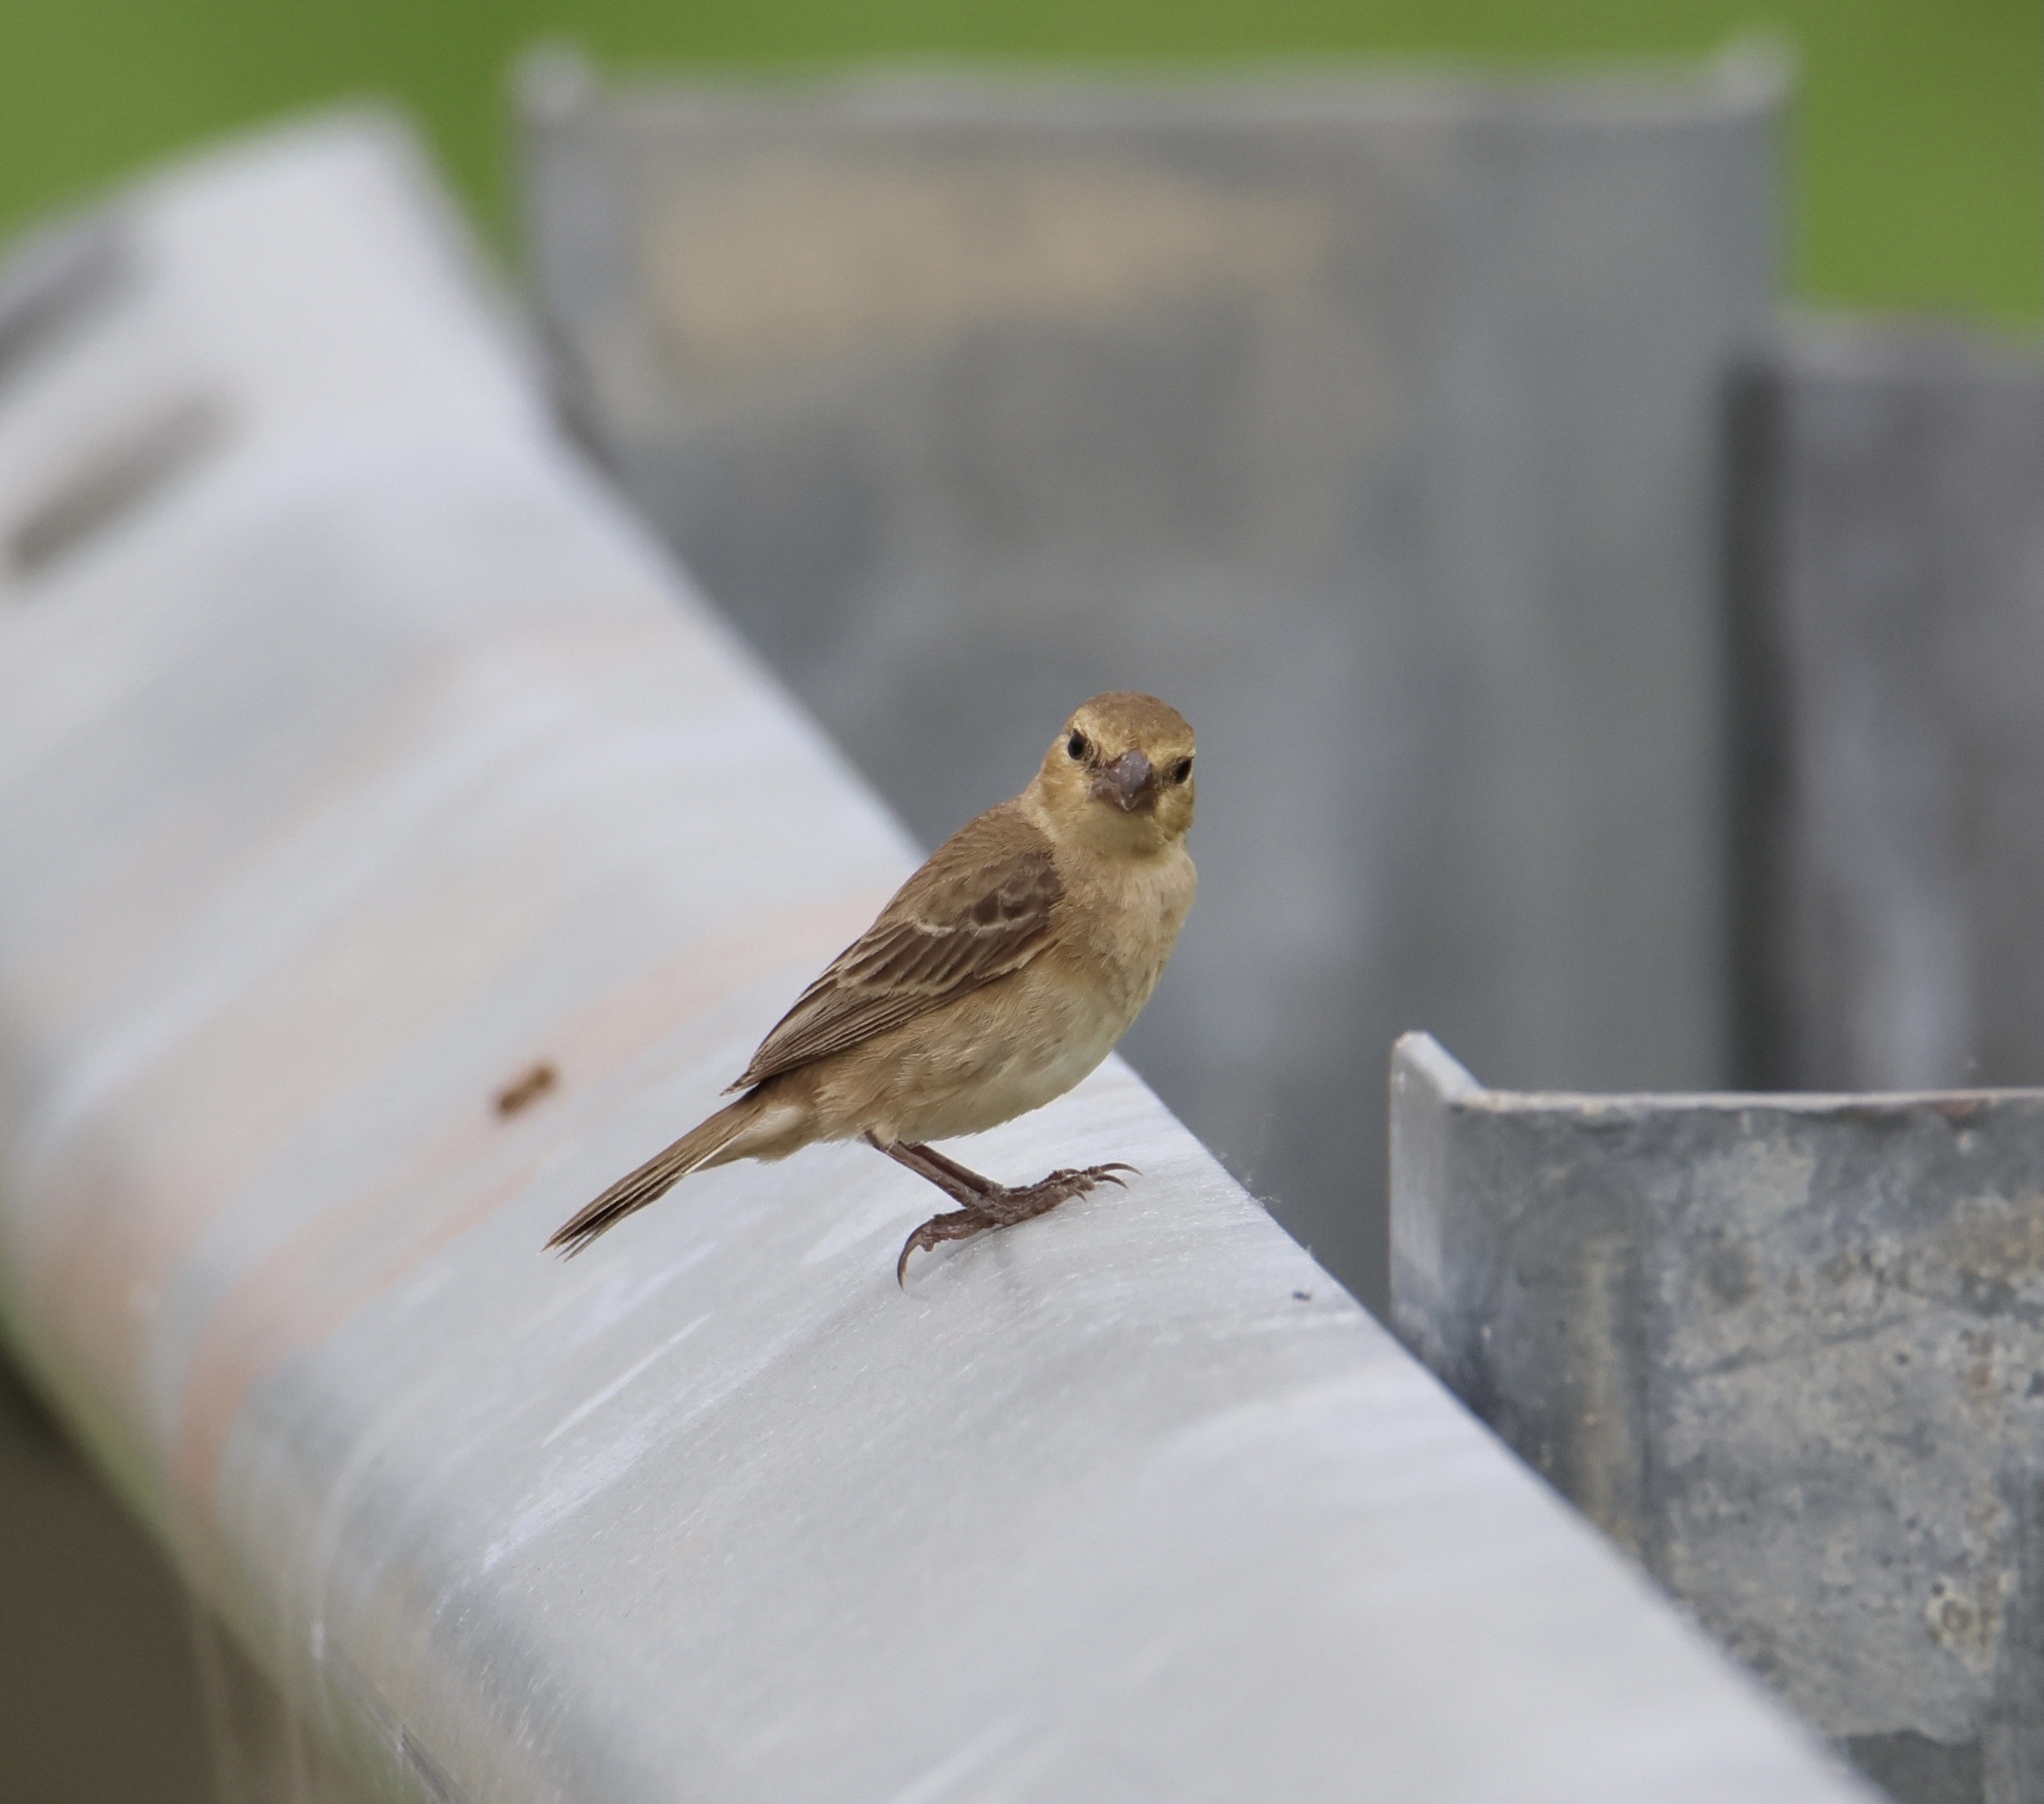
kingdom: Animalia
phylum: Chordata
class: Aves
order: Passeriformes
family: Thraupidae
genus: Sporophila
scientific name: Sporophila minuta
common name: Ruddy-breasted seedeater
